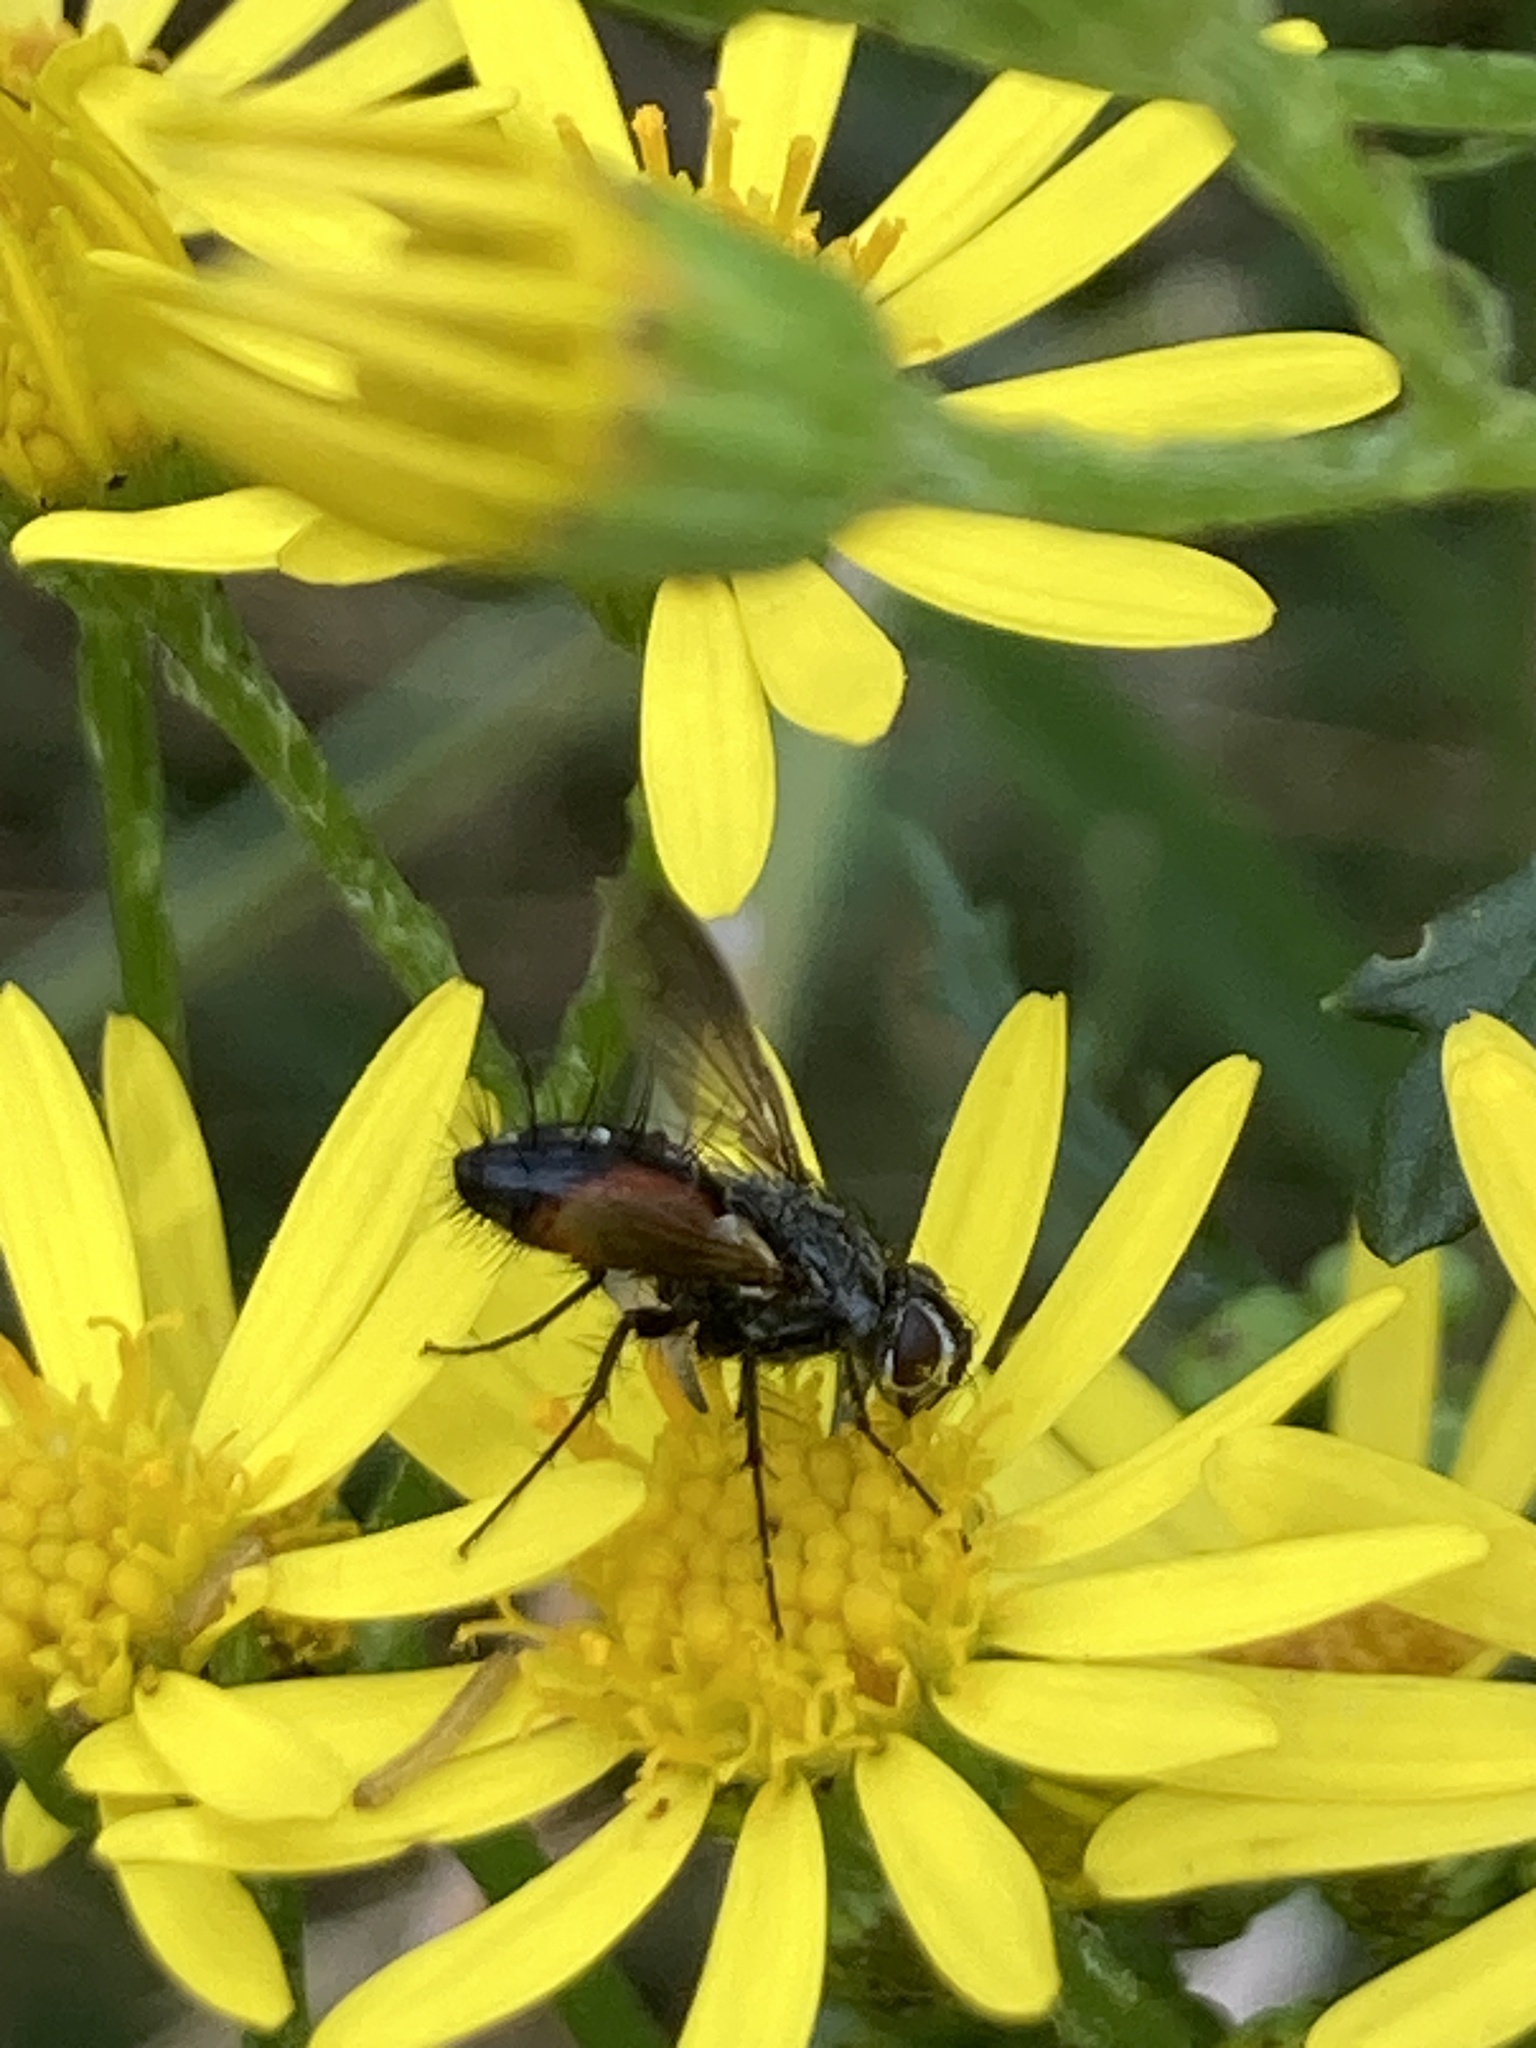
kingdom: Animalia
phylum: Arthropoda
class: Insecta
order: Diptera
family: Tachinidae
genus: Eriothrix
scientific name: Eriothrix rufomaculatus
